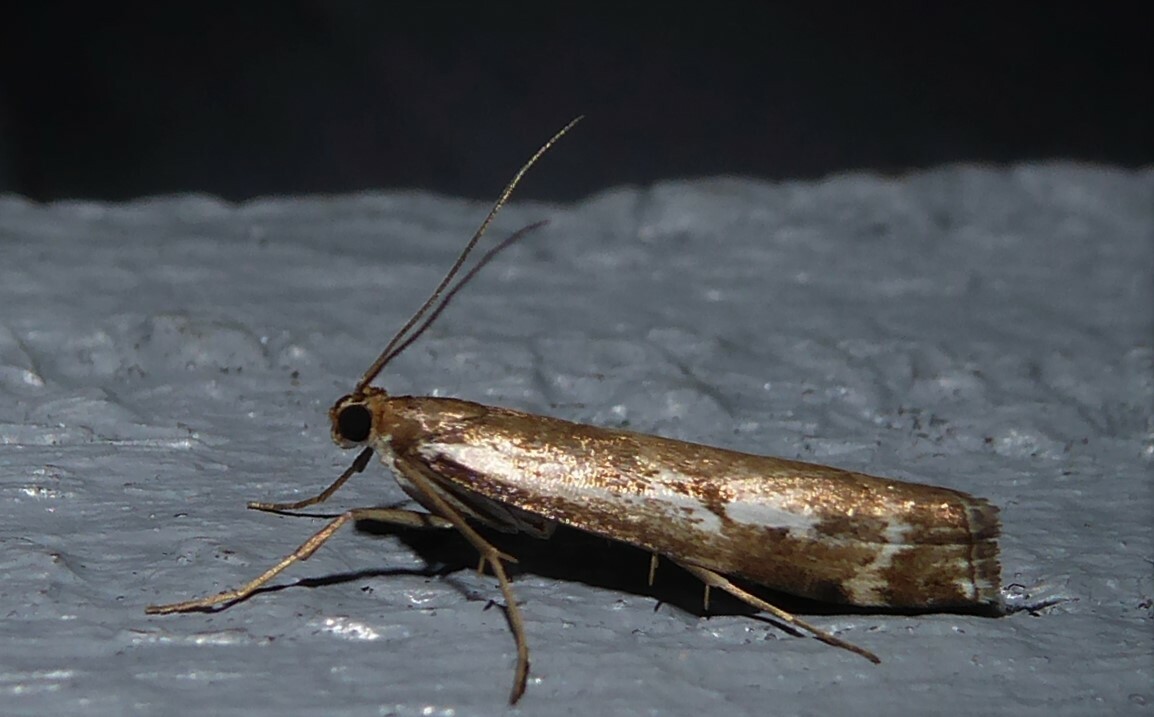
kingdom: Animalia
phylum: Arthropoda
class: Insecta
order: Lepidoptera
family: Crambidae
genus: Orocrambus
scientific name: Orocrambus vulgaris
